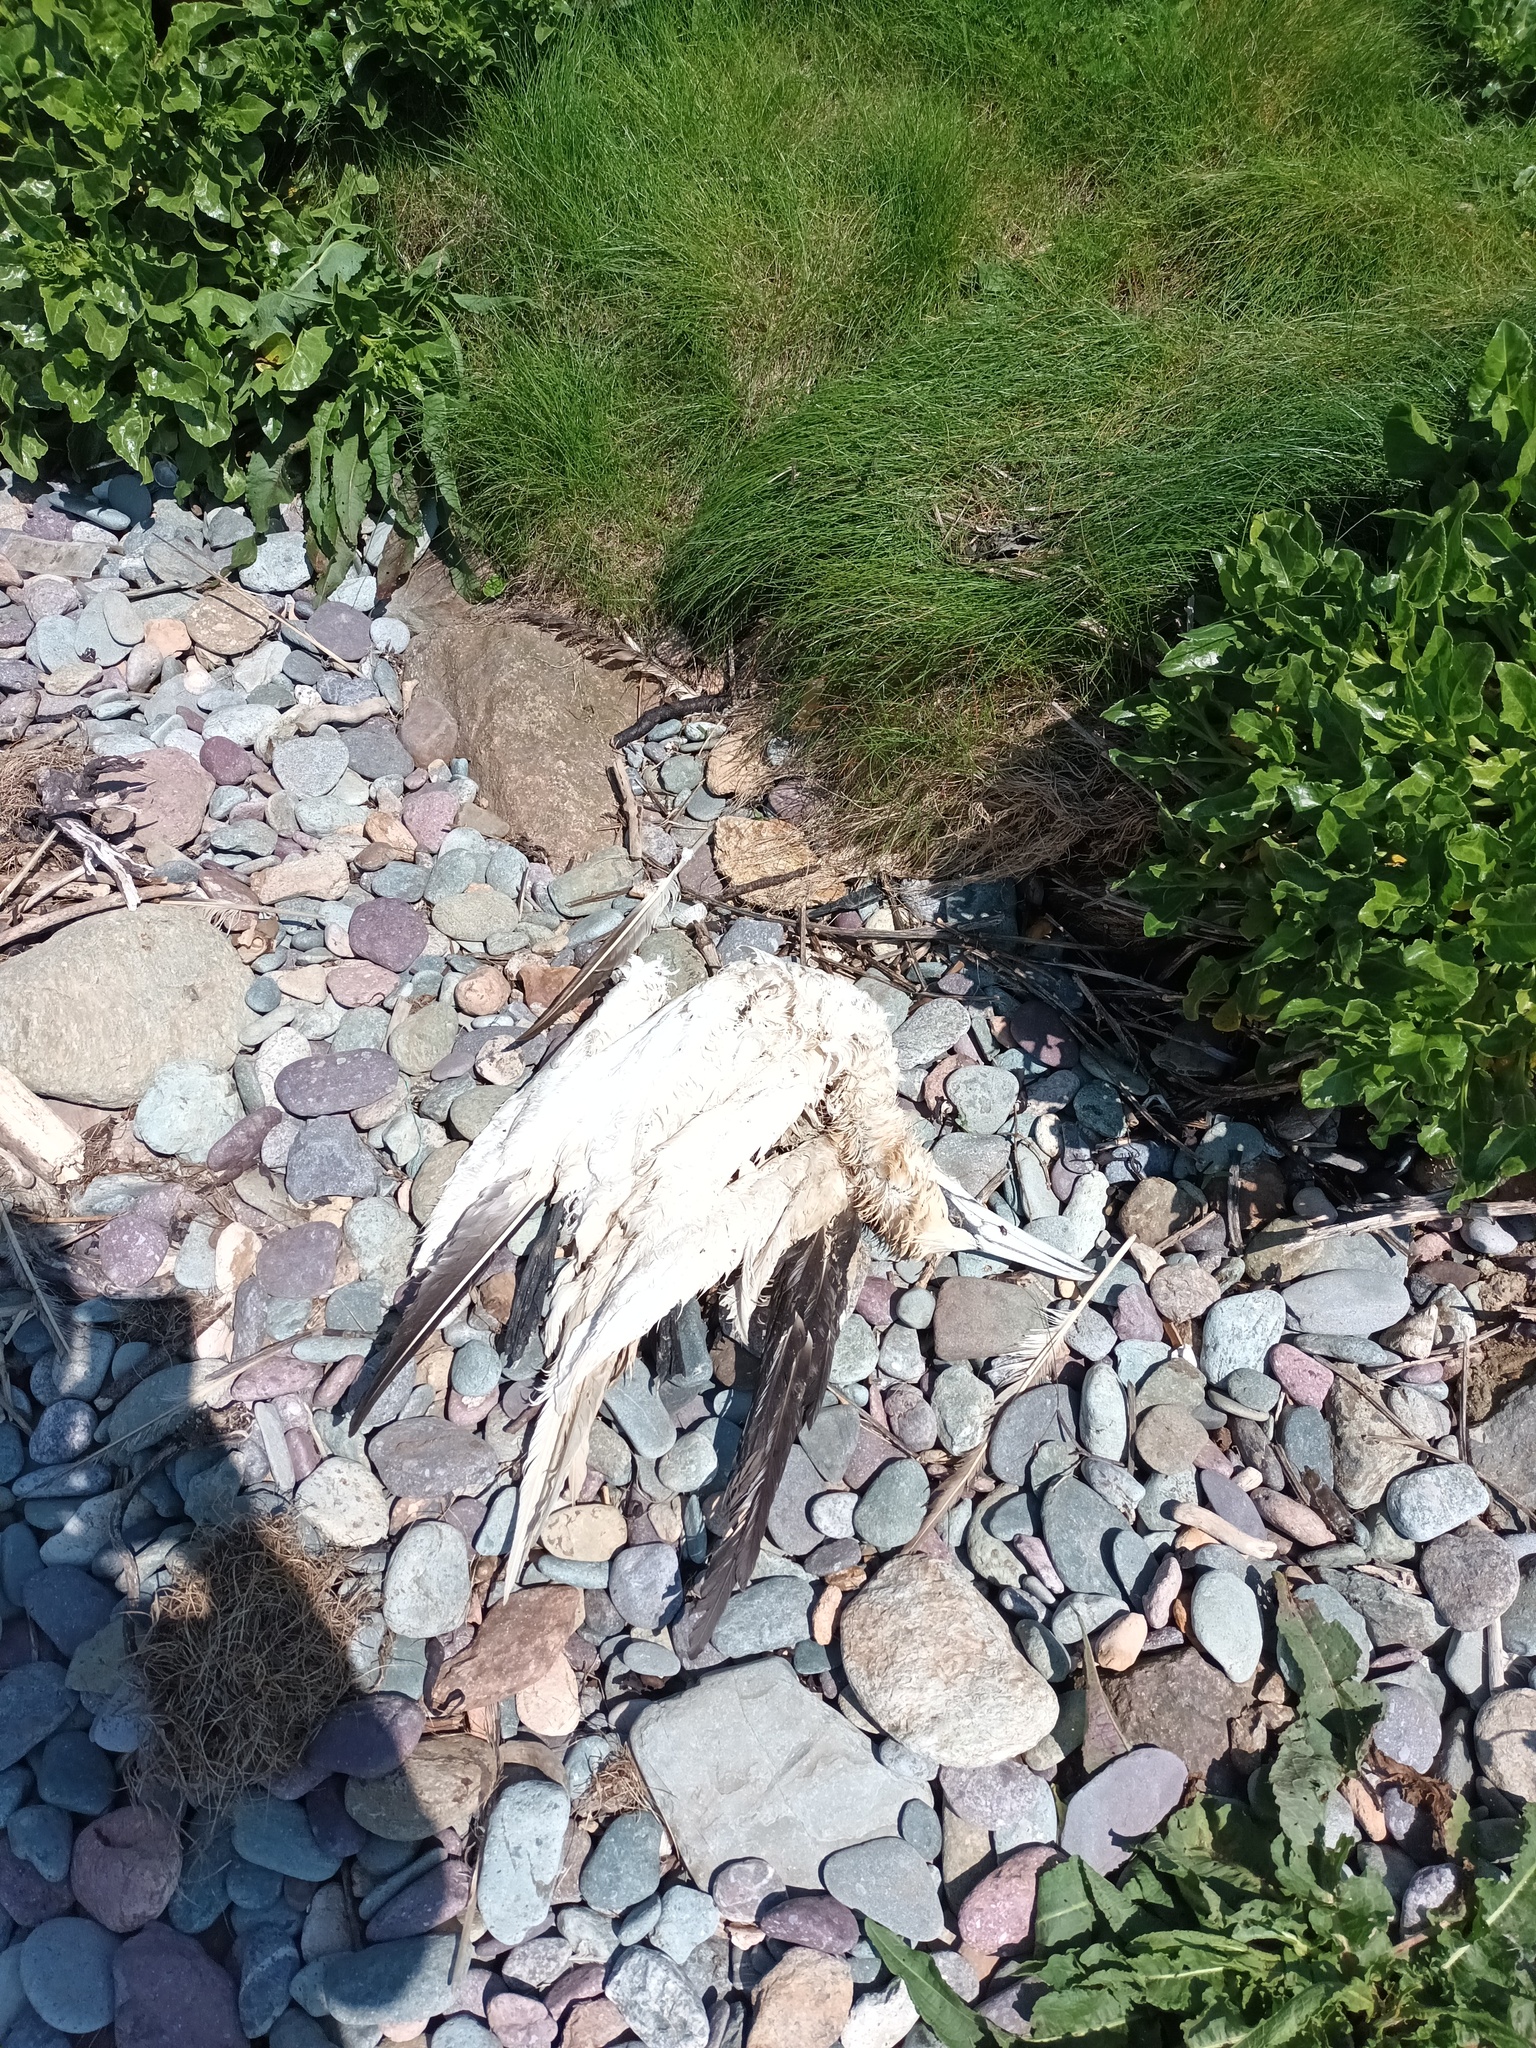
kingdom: Animalia
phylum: Chordata
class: Aves
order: Suliformes
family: Sulidae
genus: Morus
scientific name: Morus bassanus
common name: Northern gannet
